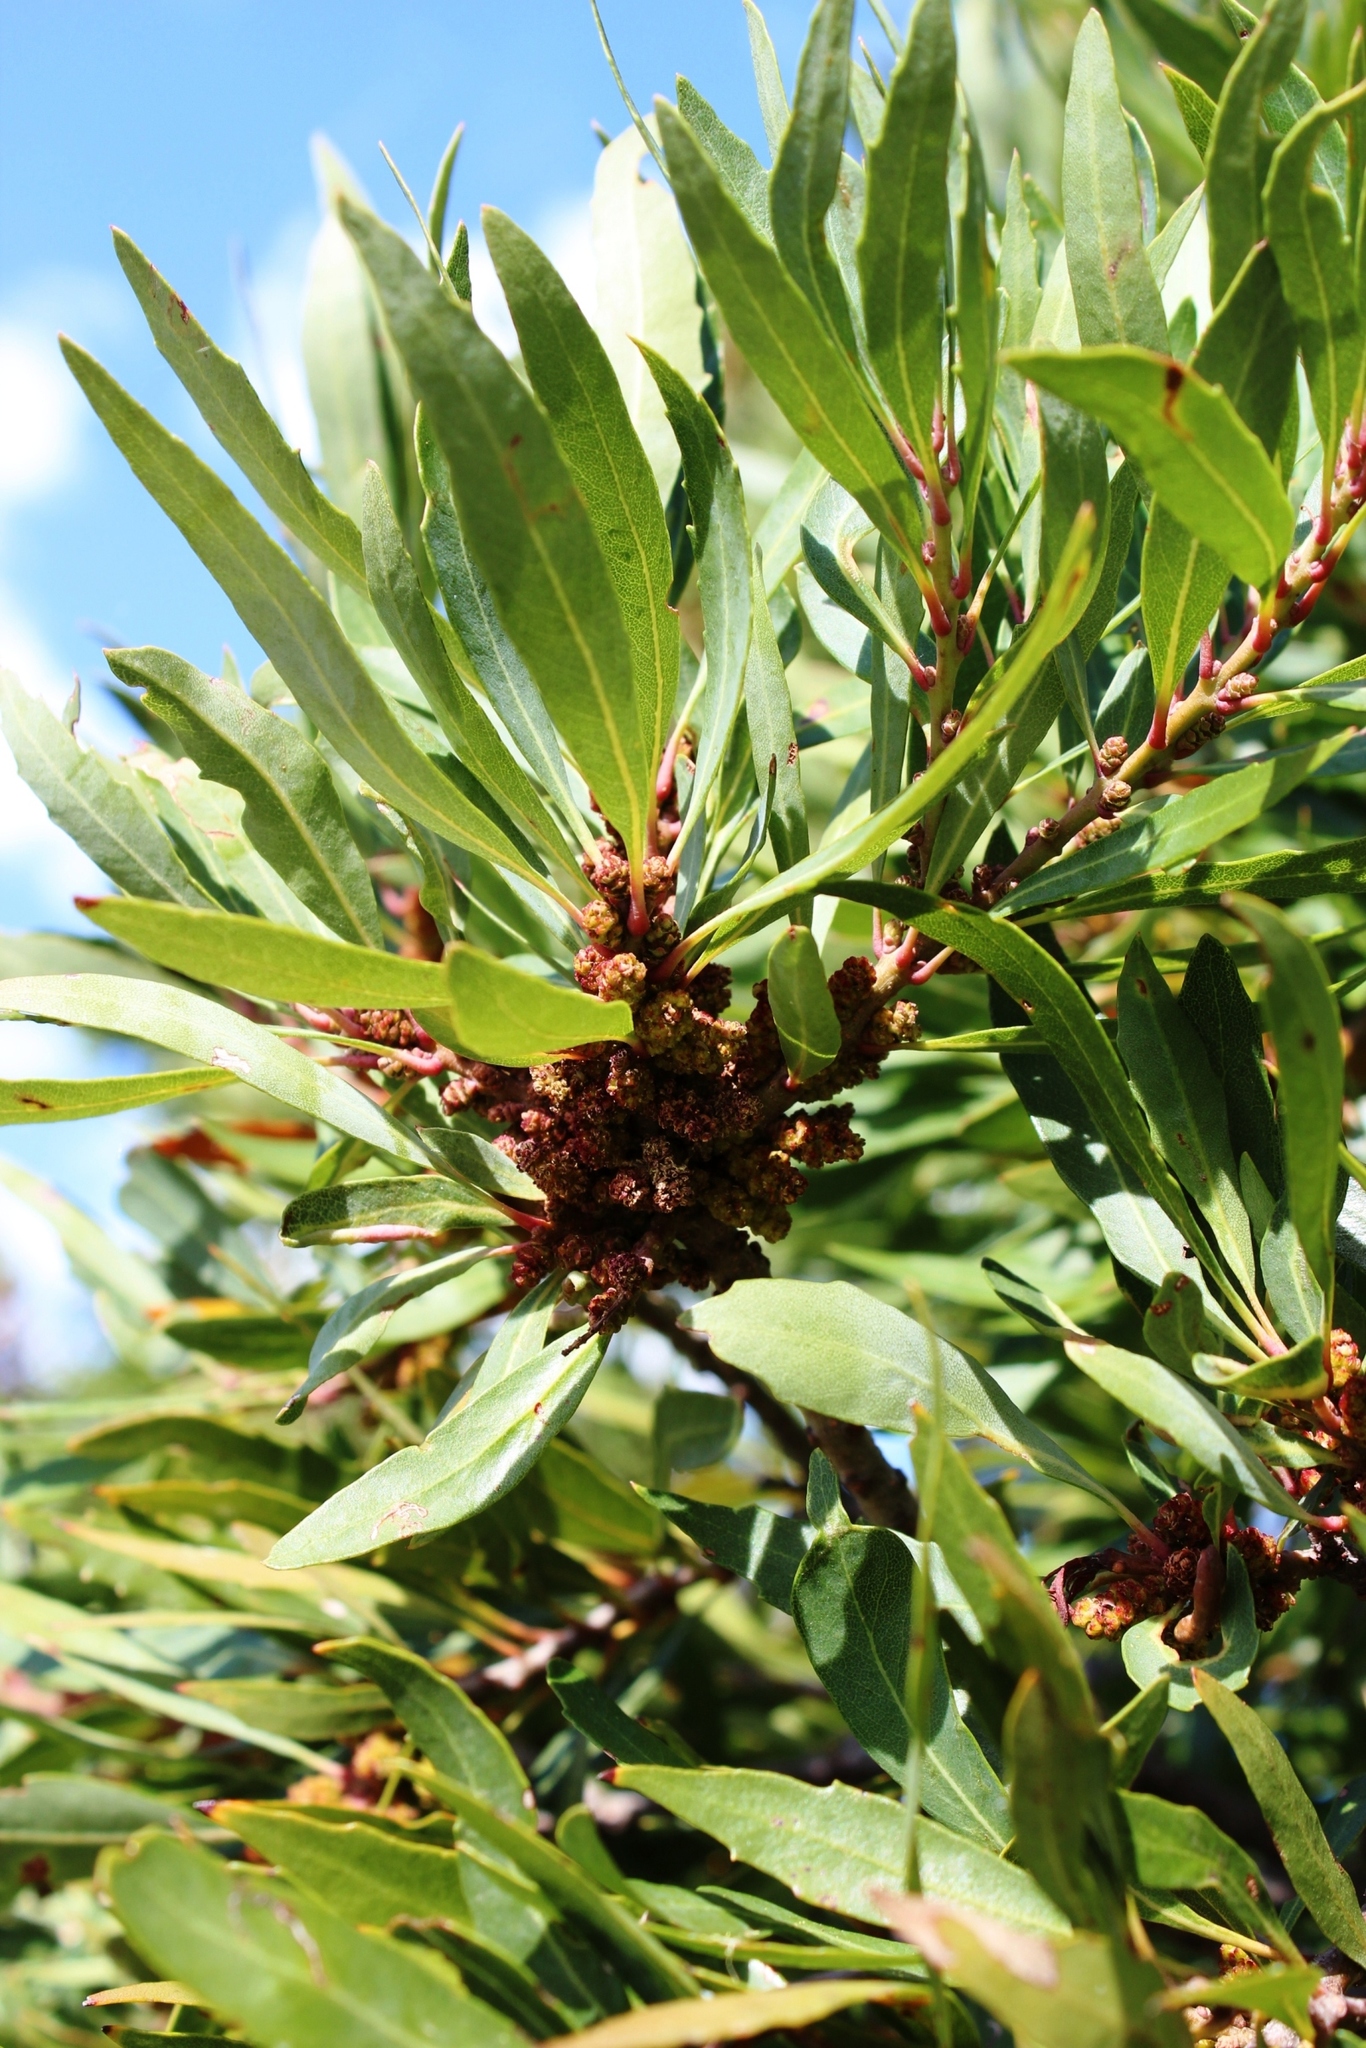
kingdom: Plantae
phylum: Tracheophyta
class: Magnoliopsida
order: Fagales
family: Myricaceae
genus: Morella
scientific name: Morella integra
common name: Western lance-leaved wax-berry
